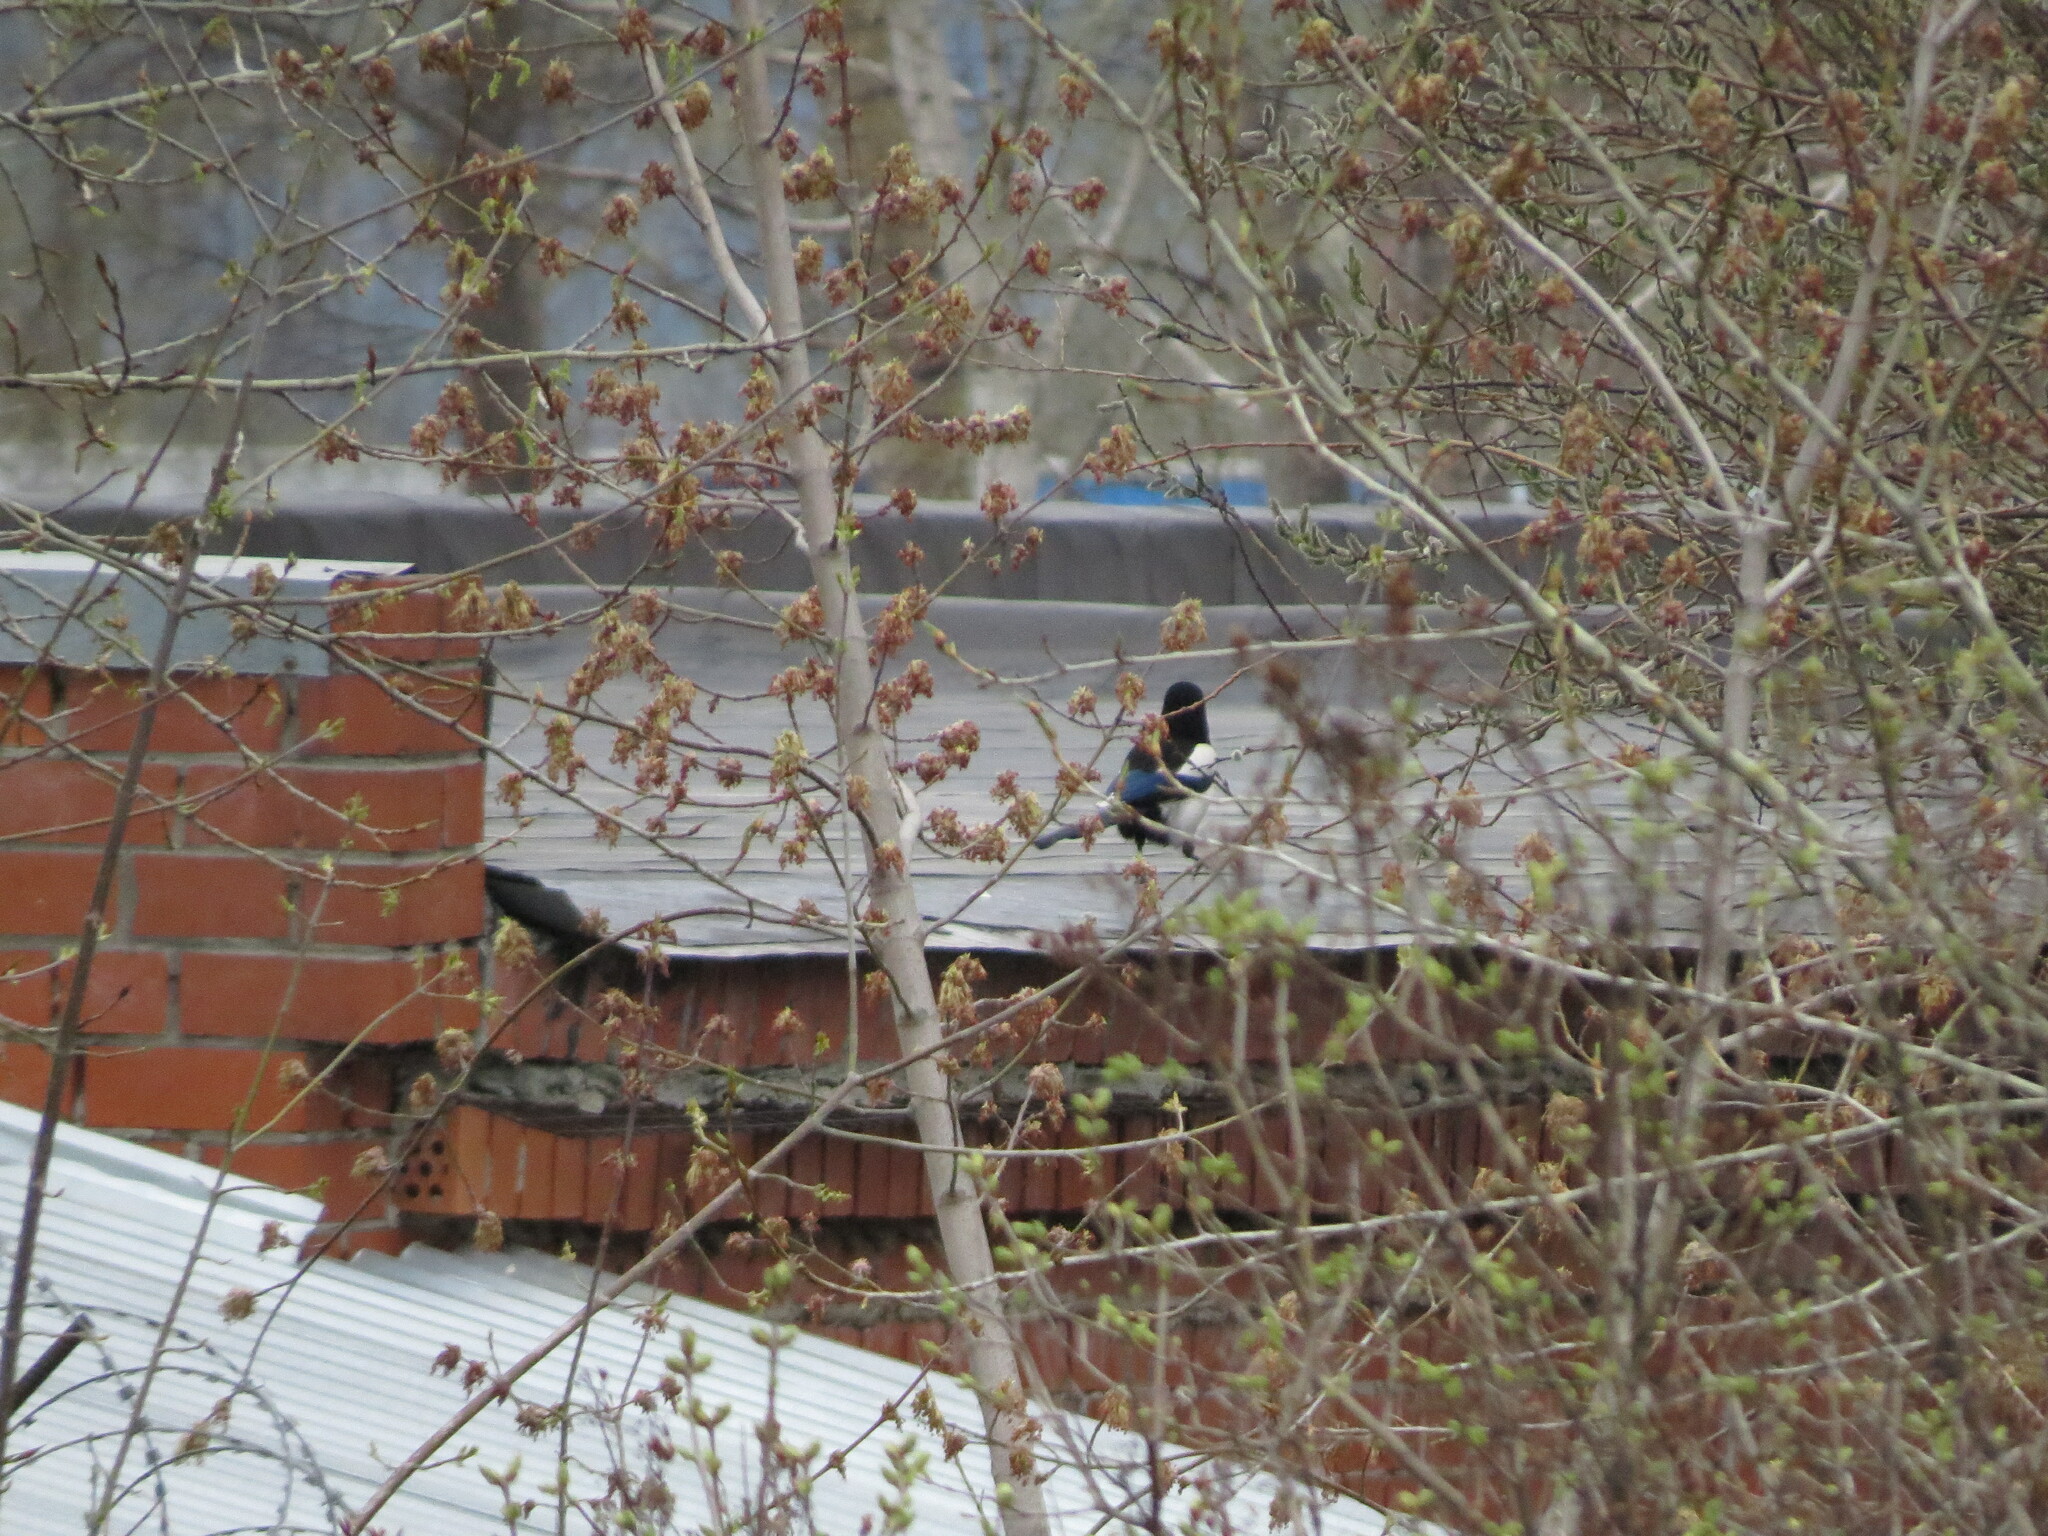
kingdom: Animalia
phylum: Chordata
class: Aves
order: Passeriformes
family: Corvidae
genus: Pica
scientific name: Pica pica
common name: Eurasian magpie
